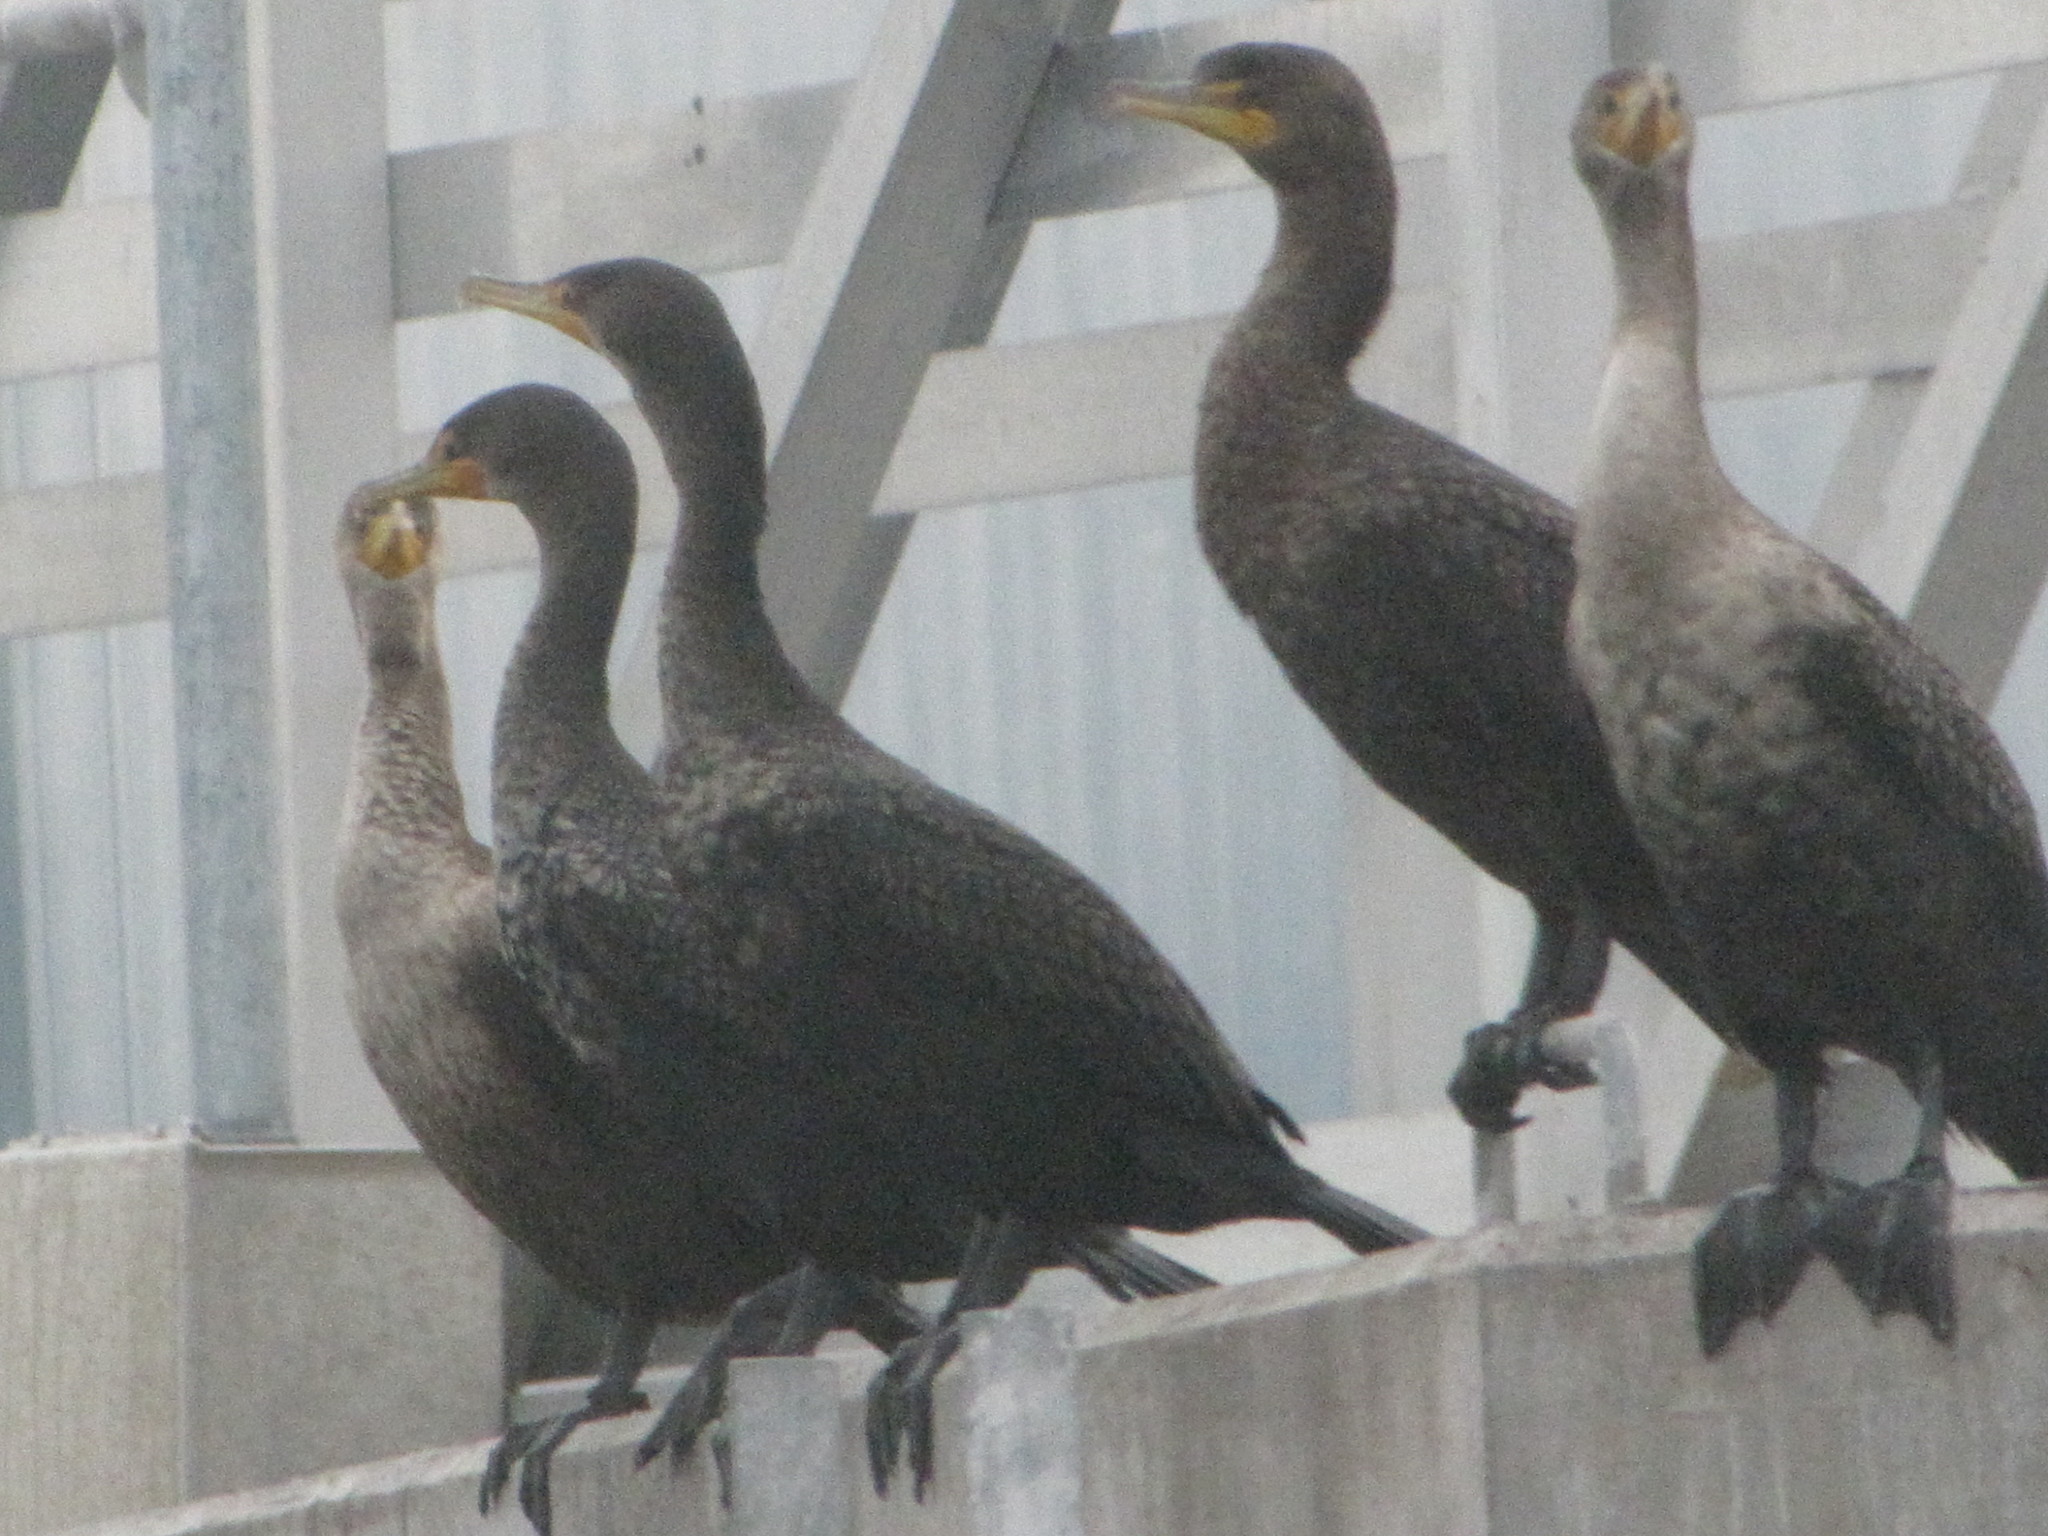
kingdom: Animalia
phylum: Chordata
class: Aves
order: Suliformes
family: Phalacrocoracidae
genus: Phalacrocorax
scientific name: Phalacrocorax auritus
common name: Double-crested cormorant
